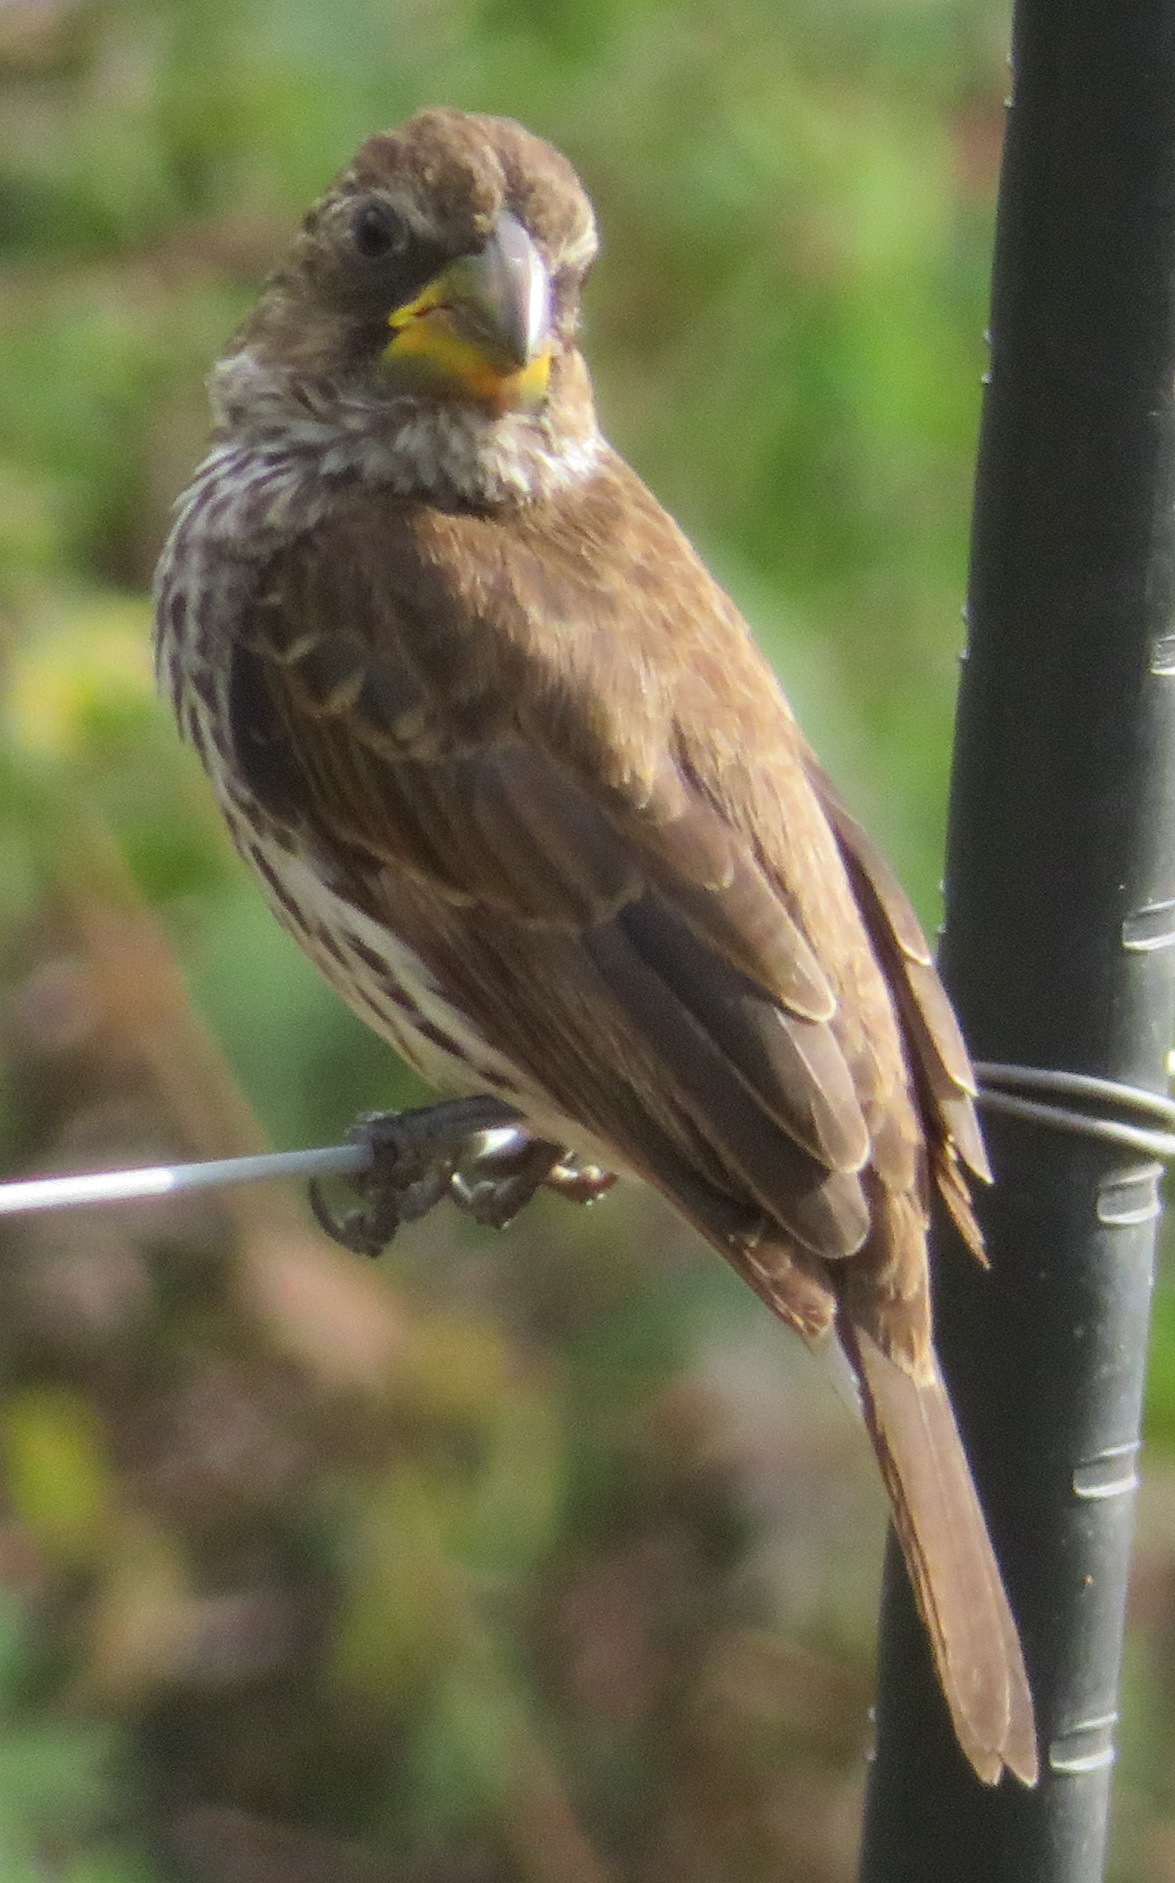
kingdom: Animalia
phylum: Chordata
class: Aves
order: Passeriformes
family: Ploceidae
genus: Amblyospiza
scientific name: Amblyospiza albifrons
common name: Thick-billed weaver
